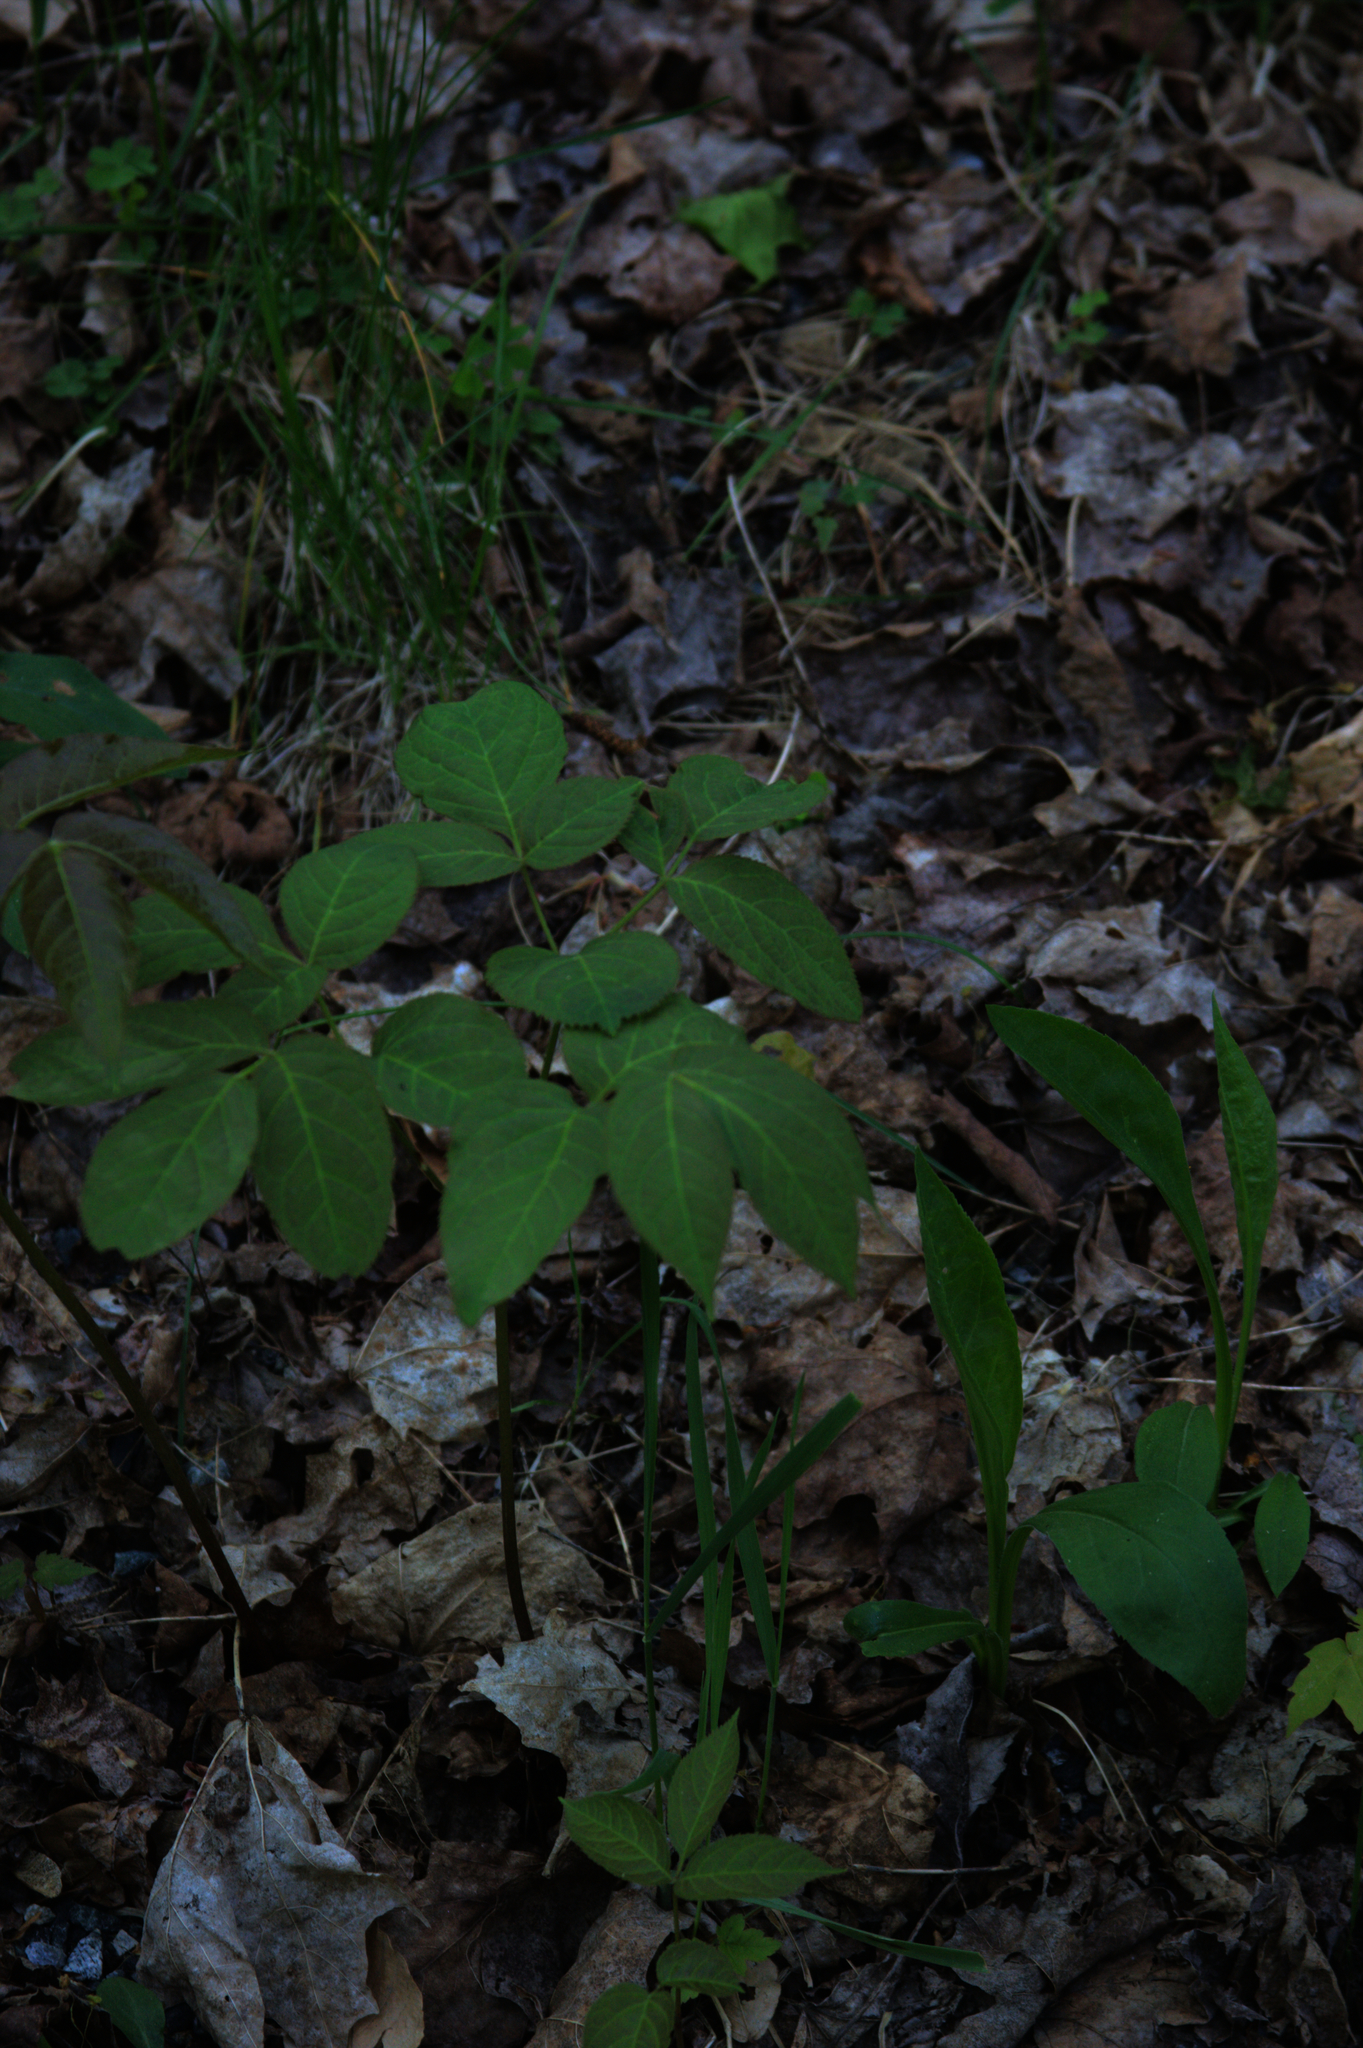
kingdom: Plantae
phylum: Tracheophyta
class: Magnoliopsida
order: Apiales
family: Araliaceae
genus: Aralia
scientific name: Aralia nudicaulis
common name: Wild sarsaparilla
